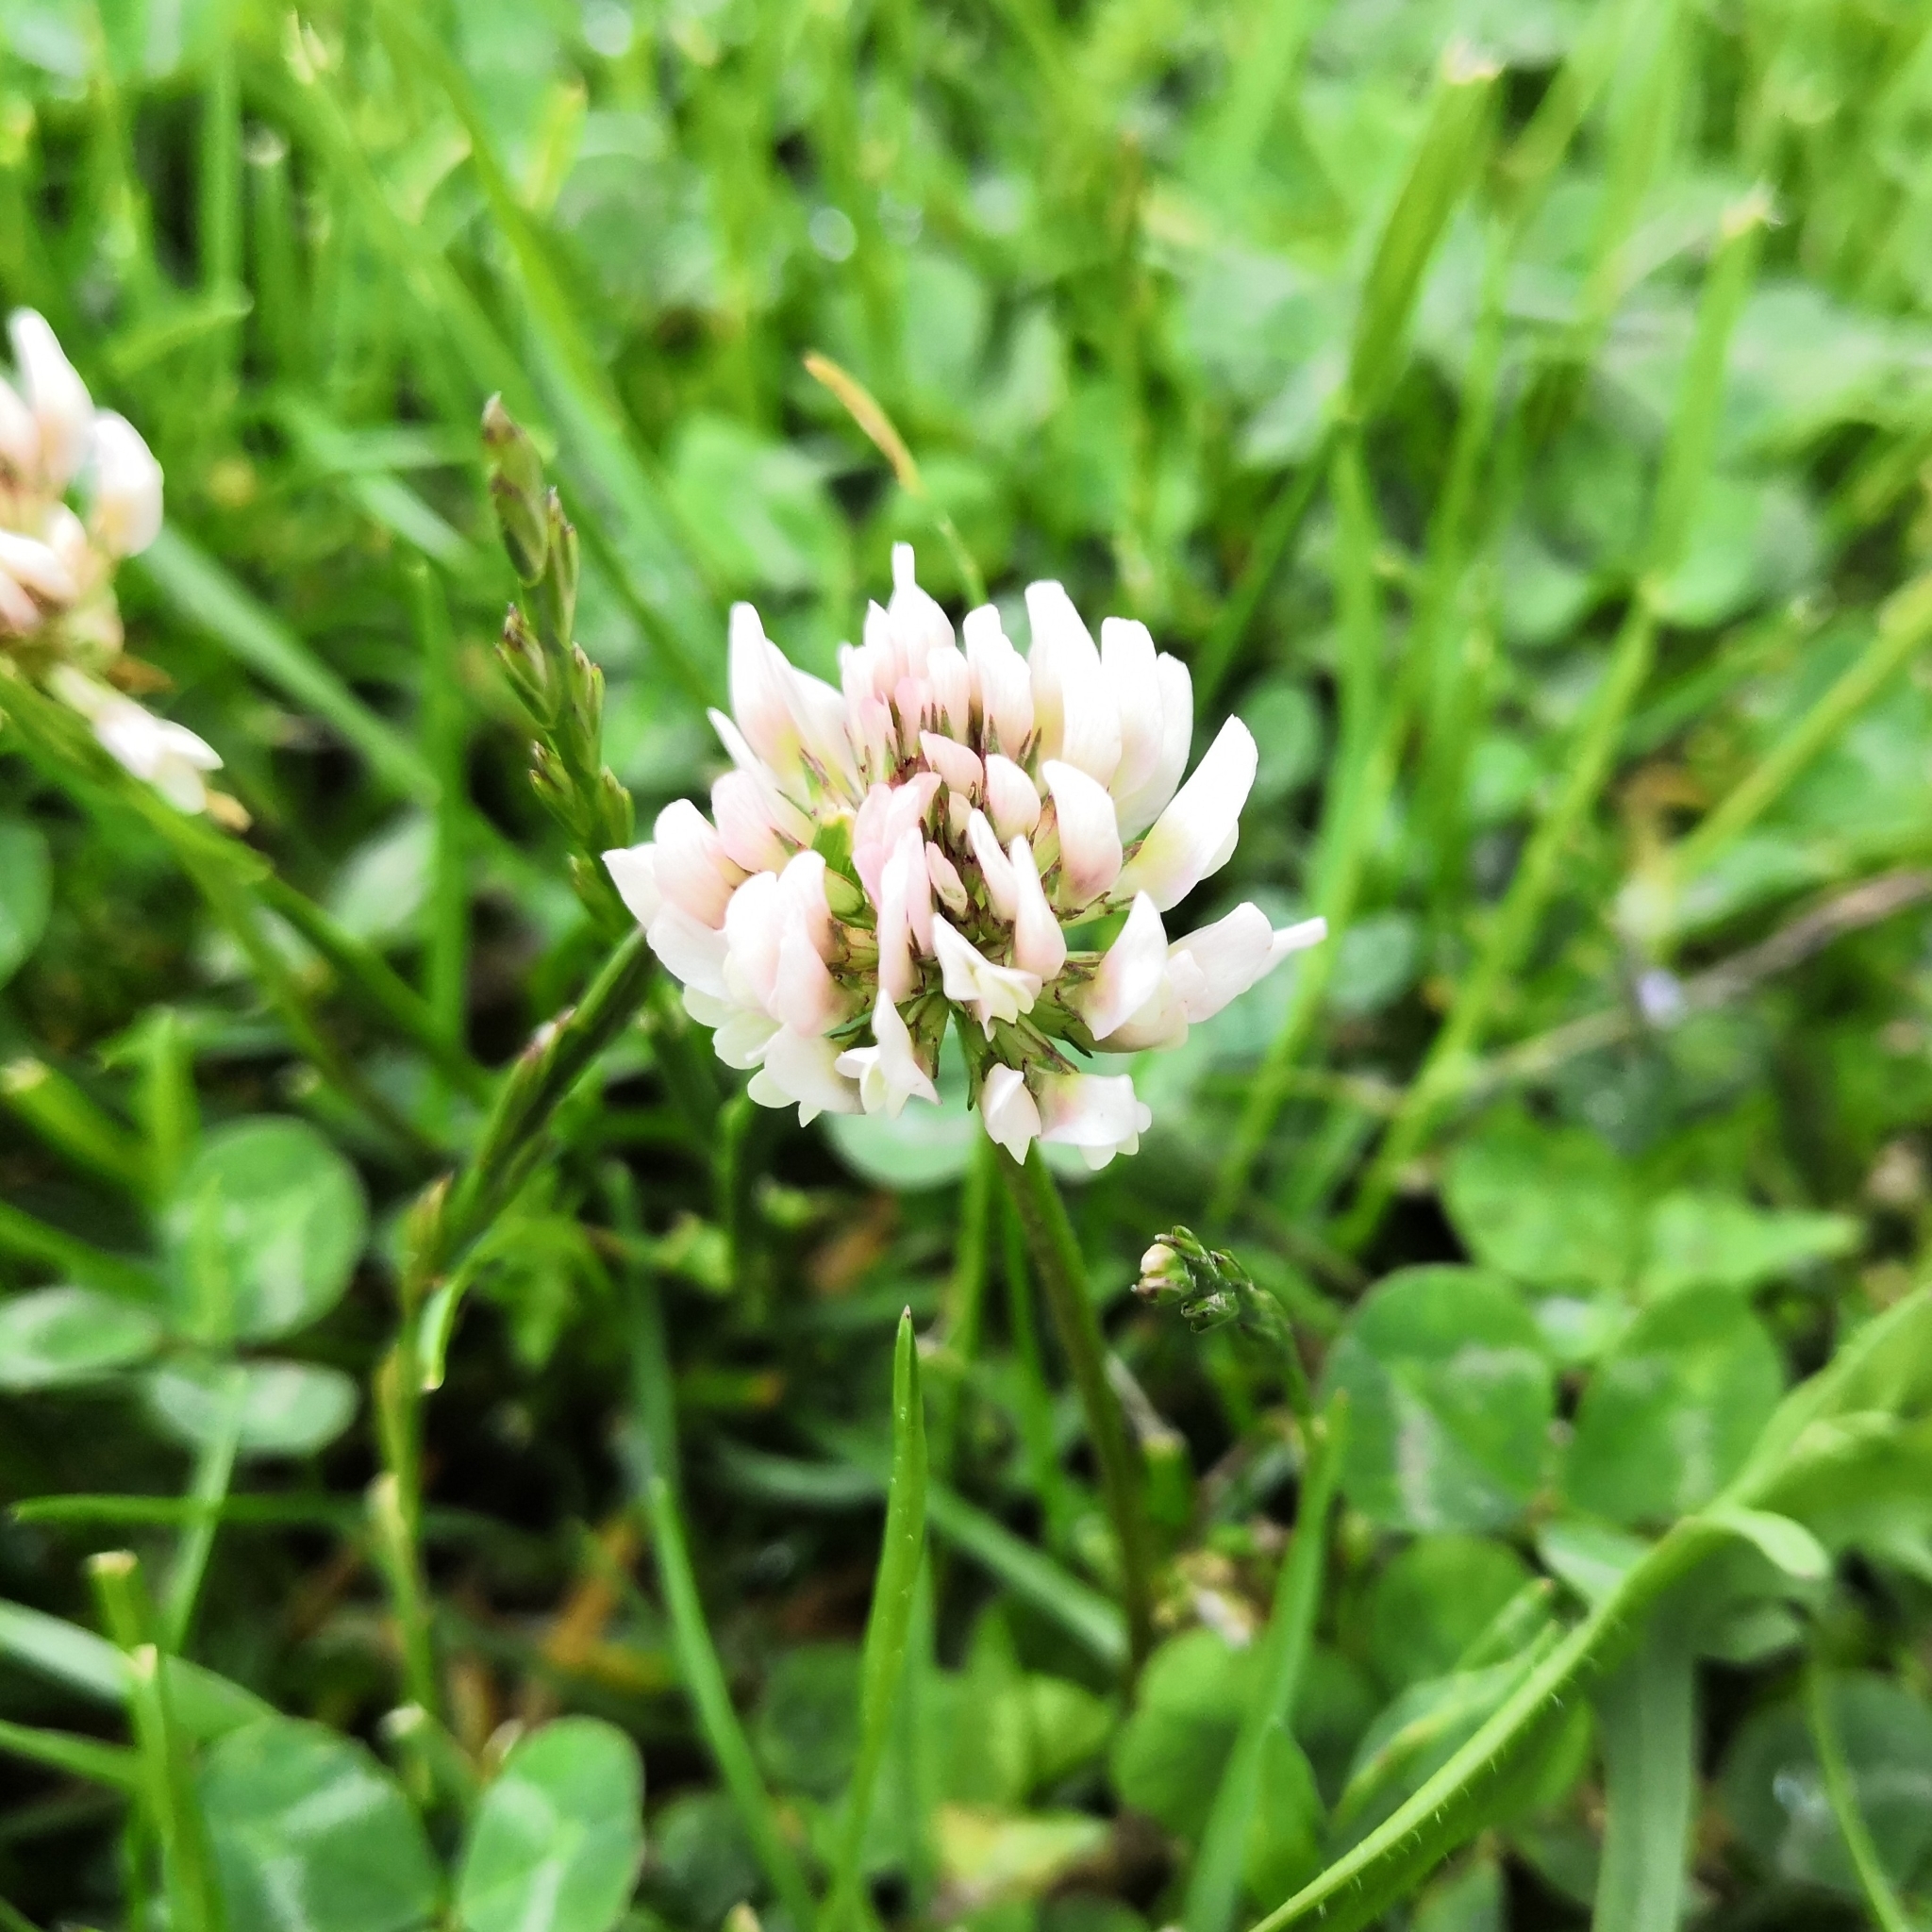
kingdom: Plantae
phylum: Tracheophyta
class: Magnoliopsida
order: Fabales
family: Fabaceae
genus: Trifolium
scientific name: Trifolium repens
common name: White clover
